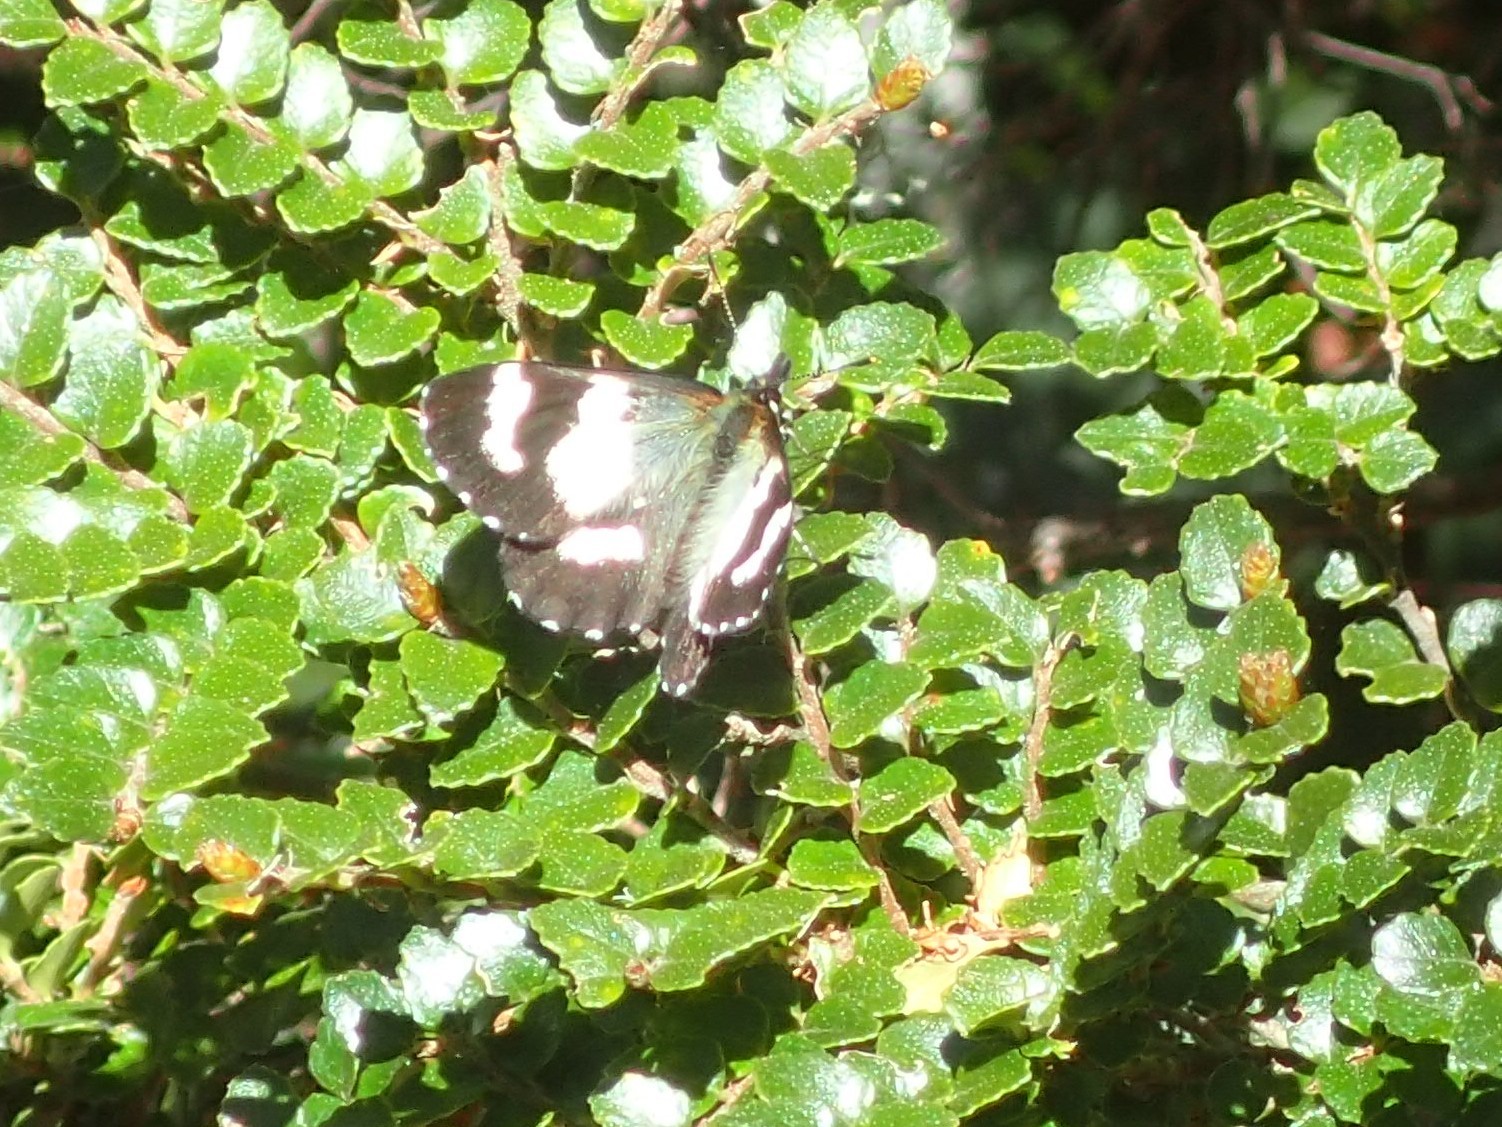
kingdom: Animalia
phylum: Arthropoda
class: Insecta
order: Lepidoptera
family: Nymphalidae
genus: Nesoxenica
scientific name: Nesoxenica leprea
